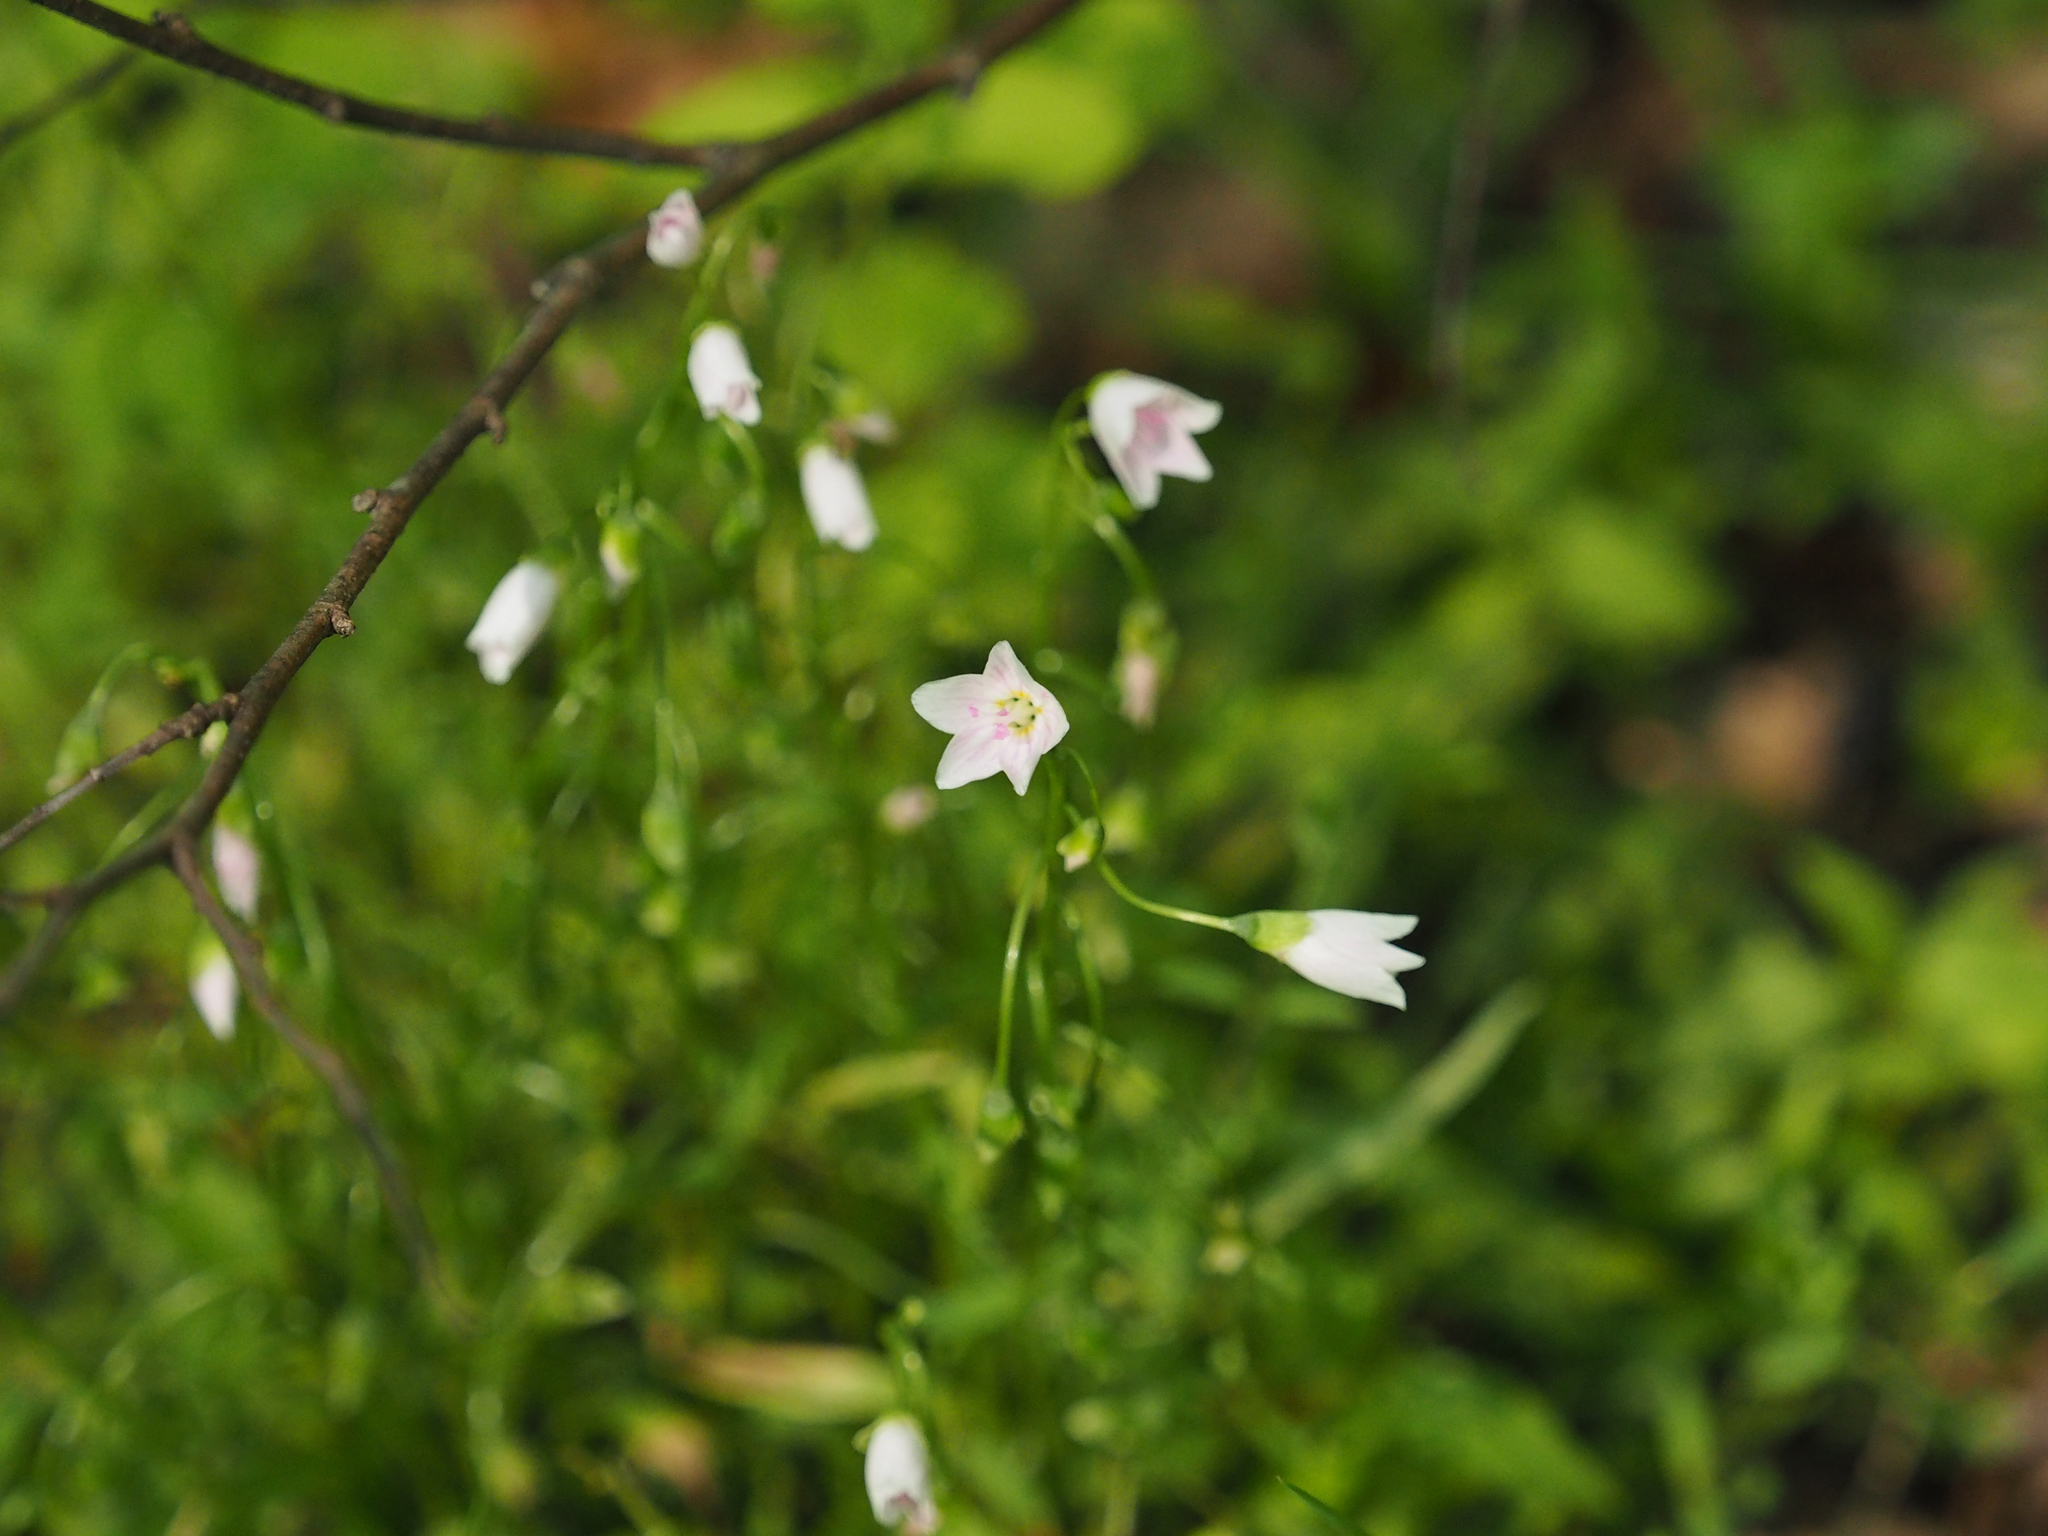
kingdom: Plantae
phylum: Tracheophyta
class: Magnoliopsida
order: Caryophyllales
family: Montiaceae
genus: Claytonia
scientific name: Claytonia virginica
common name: Virginia springbeauty
